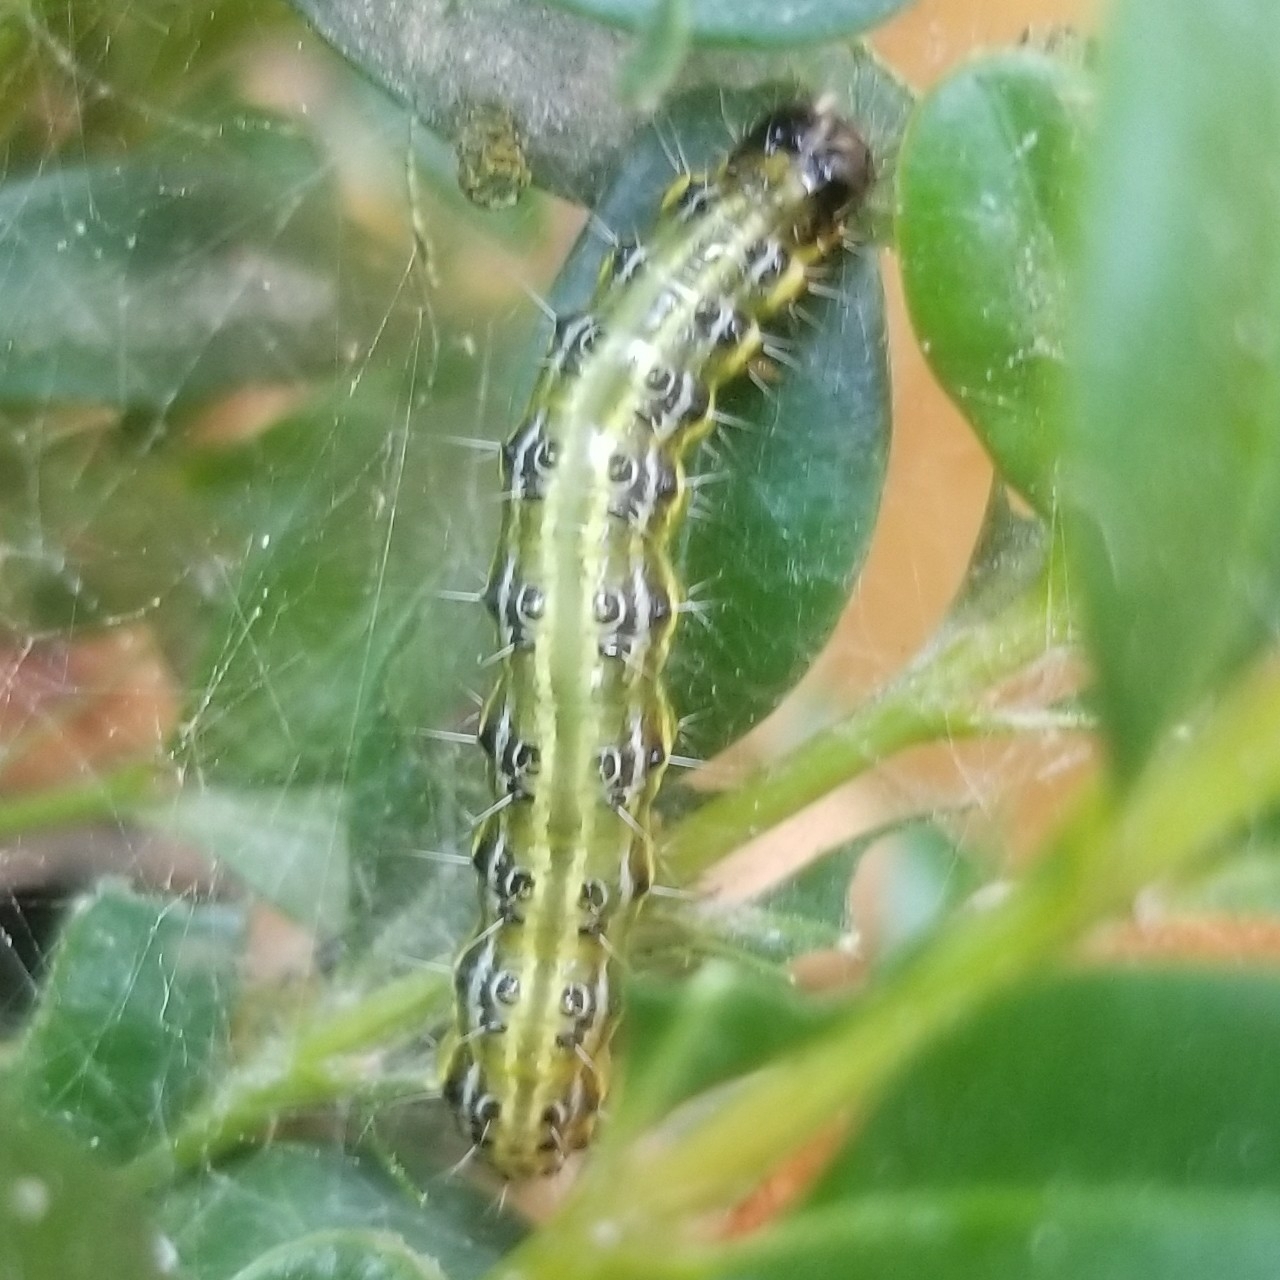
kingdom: Animalia
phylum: Arthropoda
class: Insecta
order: Lepidoptera
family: Crambidae
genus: Cydalima
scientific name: Cydalima perspectalis
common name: Box tree moth
